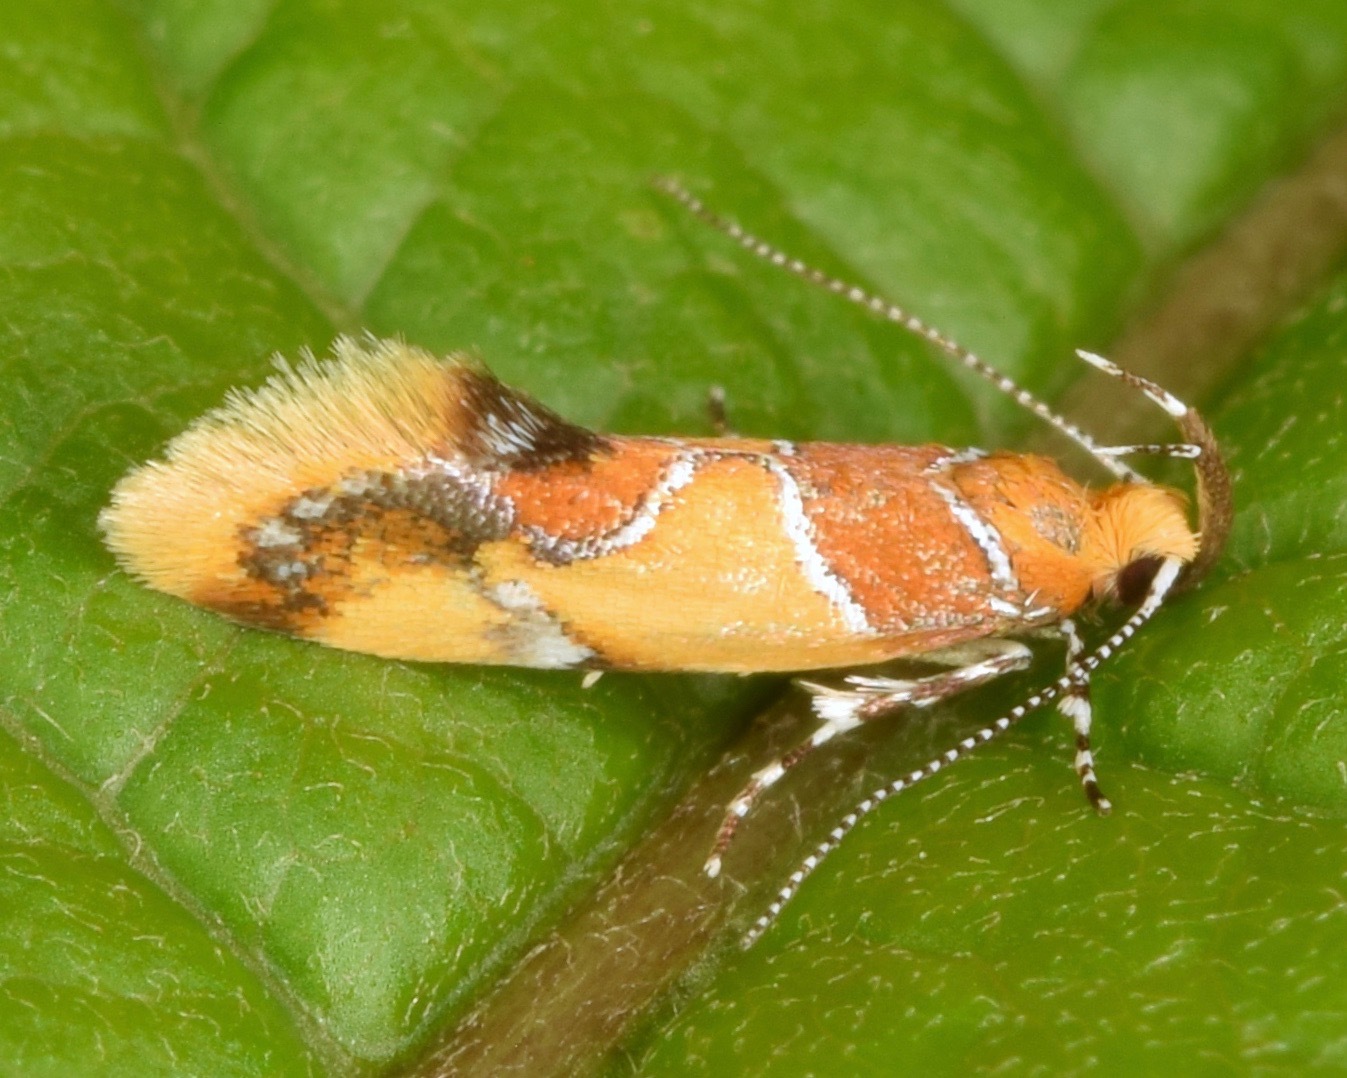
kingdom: Animalia
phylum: Arthropoda
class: Insecta
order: Lepidoptera
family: Oecophoridae
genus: Callima
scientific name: Callima argenticinctella
